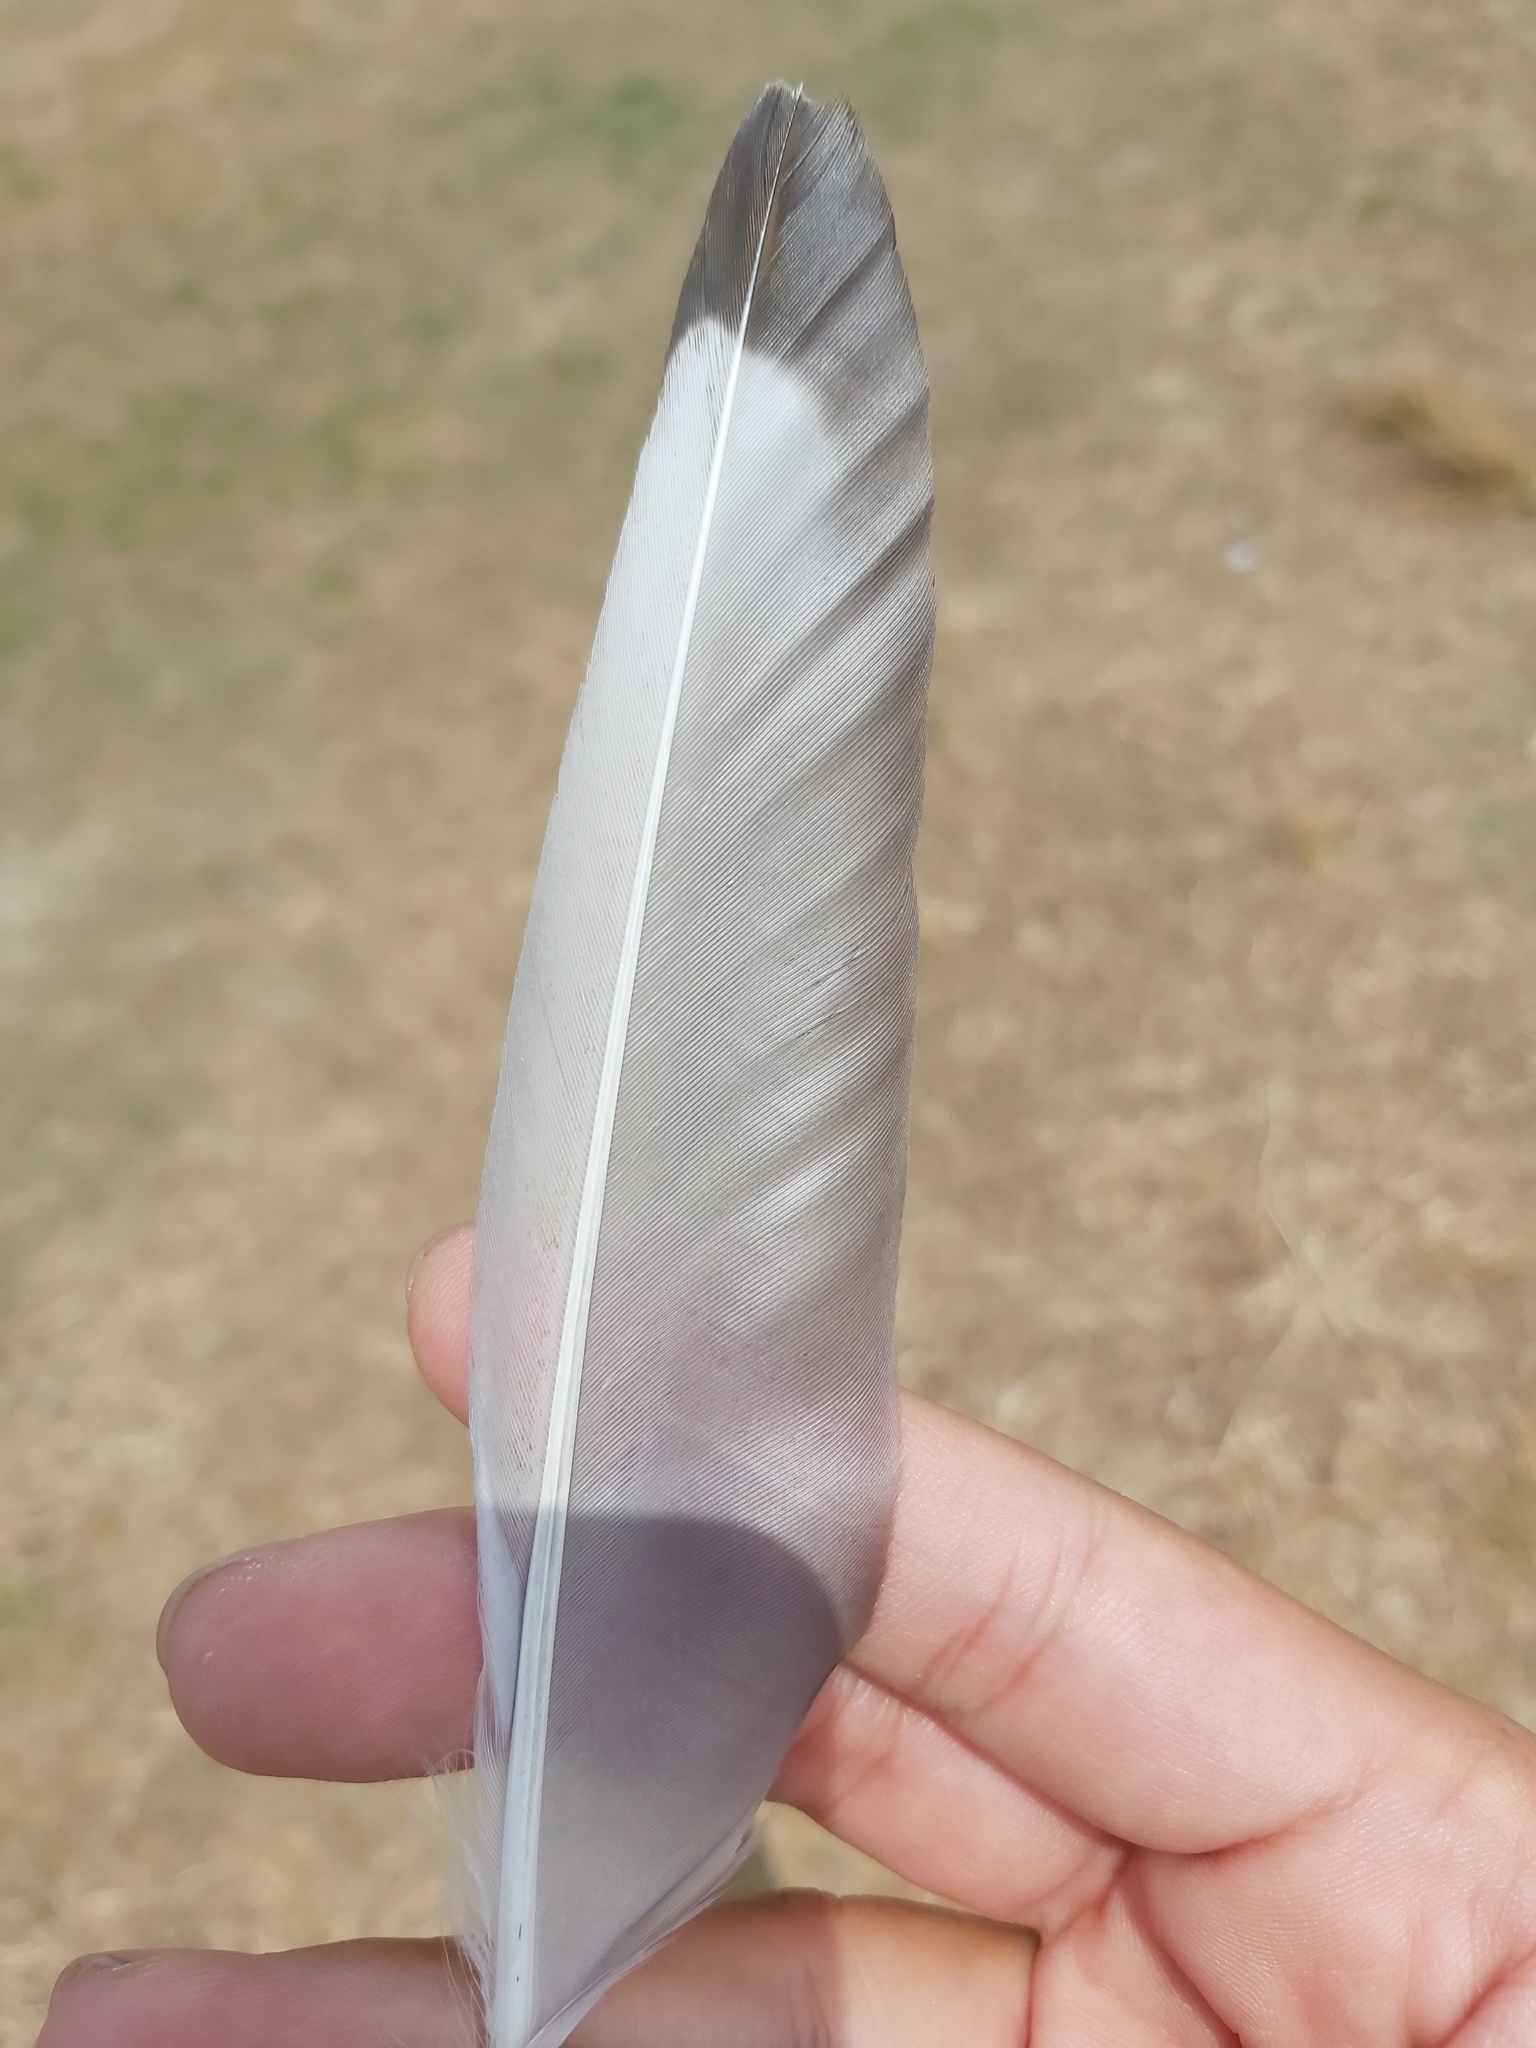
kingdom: Animalia
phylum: Chordata
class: Aves
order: Charadriiformes
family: Laridae
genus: Chroicocephalus
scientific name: Chroicocephalus novaehollandiae
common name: Silver gull
